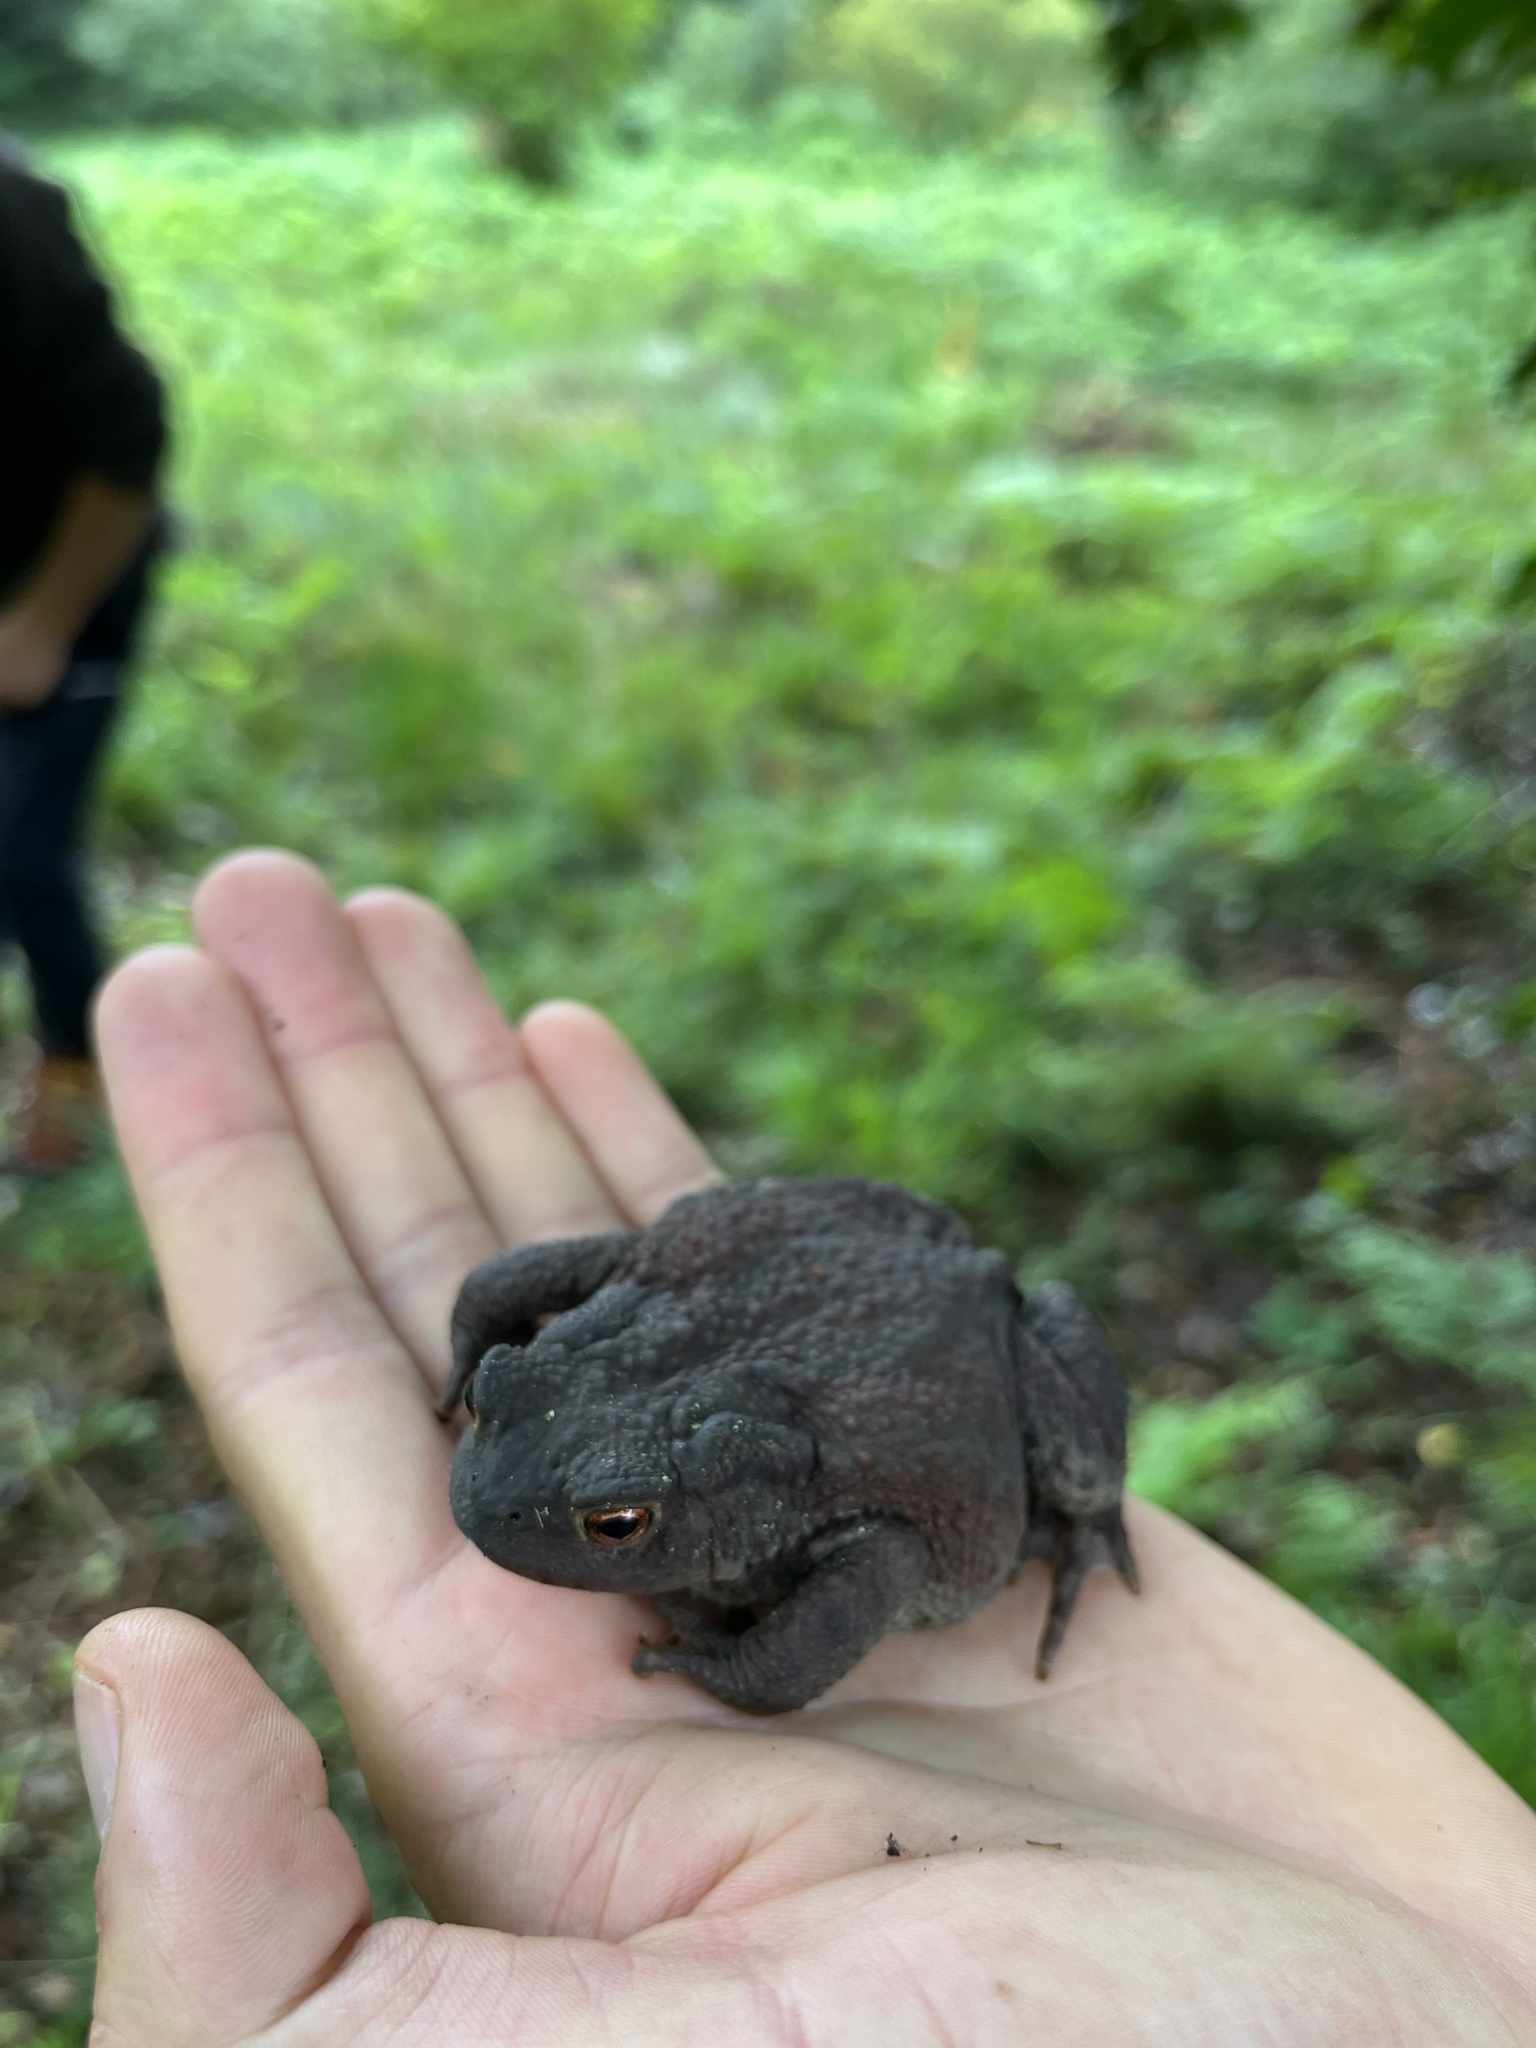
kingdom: Animalia
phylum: Chordata
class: Amphibia
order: Anura
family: Bufonidae
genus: Bufo
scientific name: Bufo bufo
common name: Common toad
